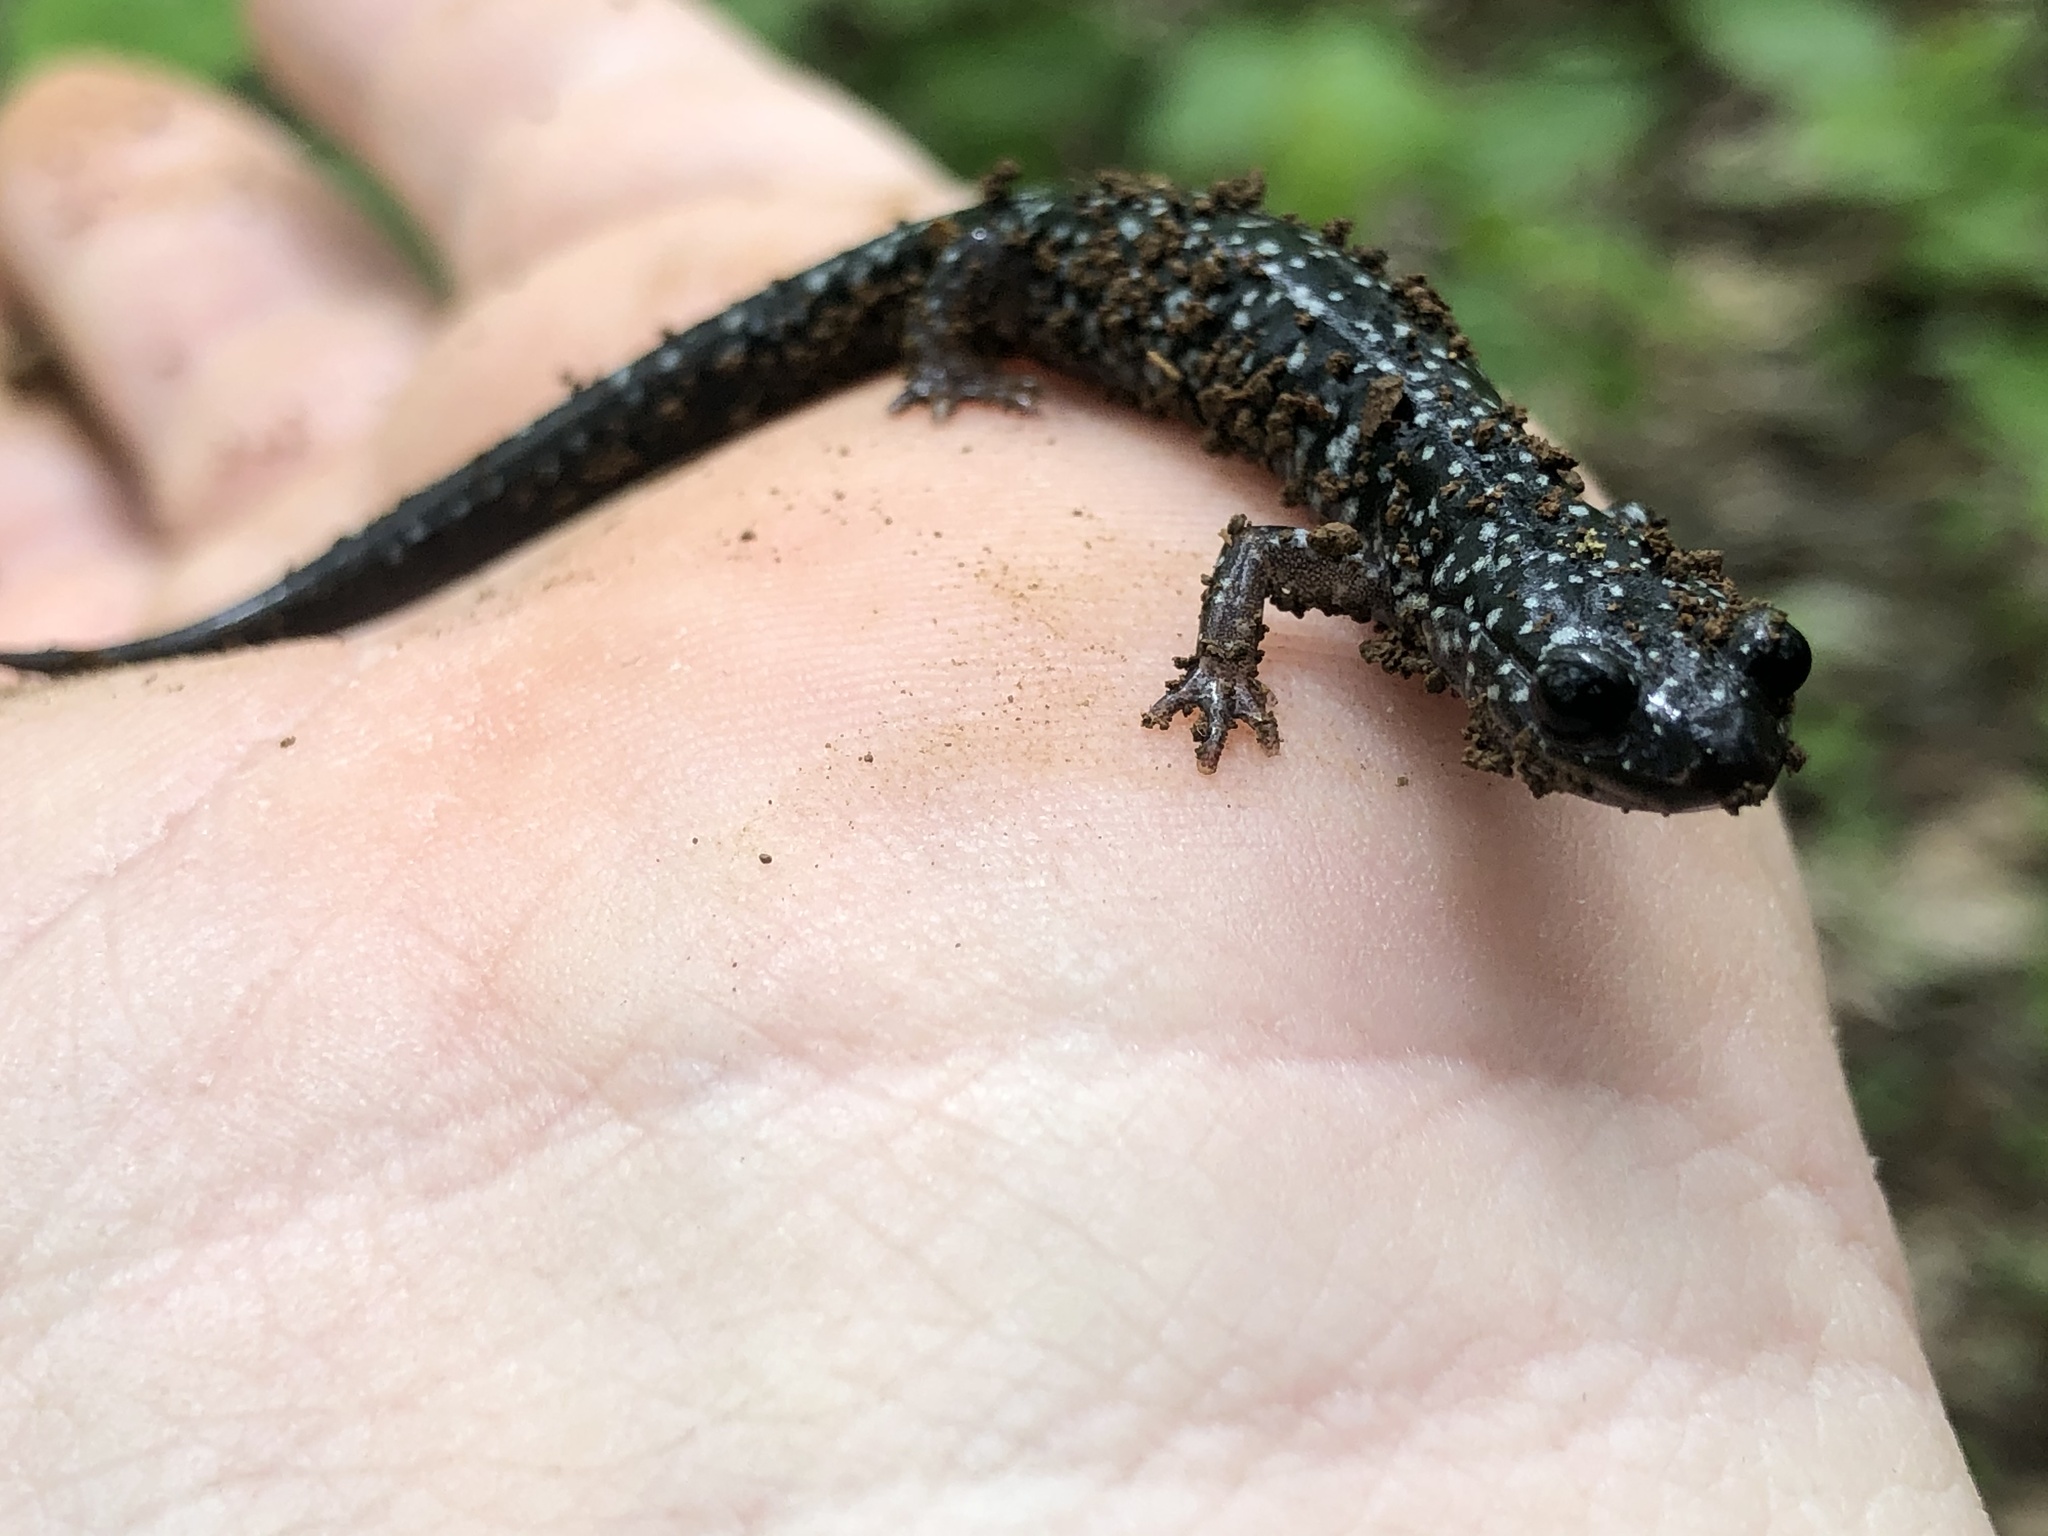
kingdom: Animalia
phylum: Chordata
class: Amphibia
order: Caudata
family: Plethodontidae
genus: Plethodon
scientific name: Plethodon cylindraceus
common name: White-spotted slimy salamander
